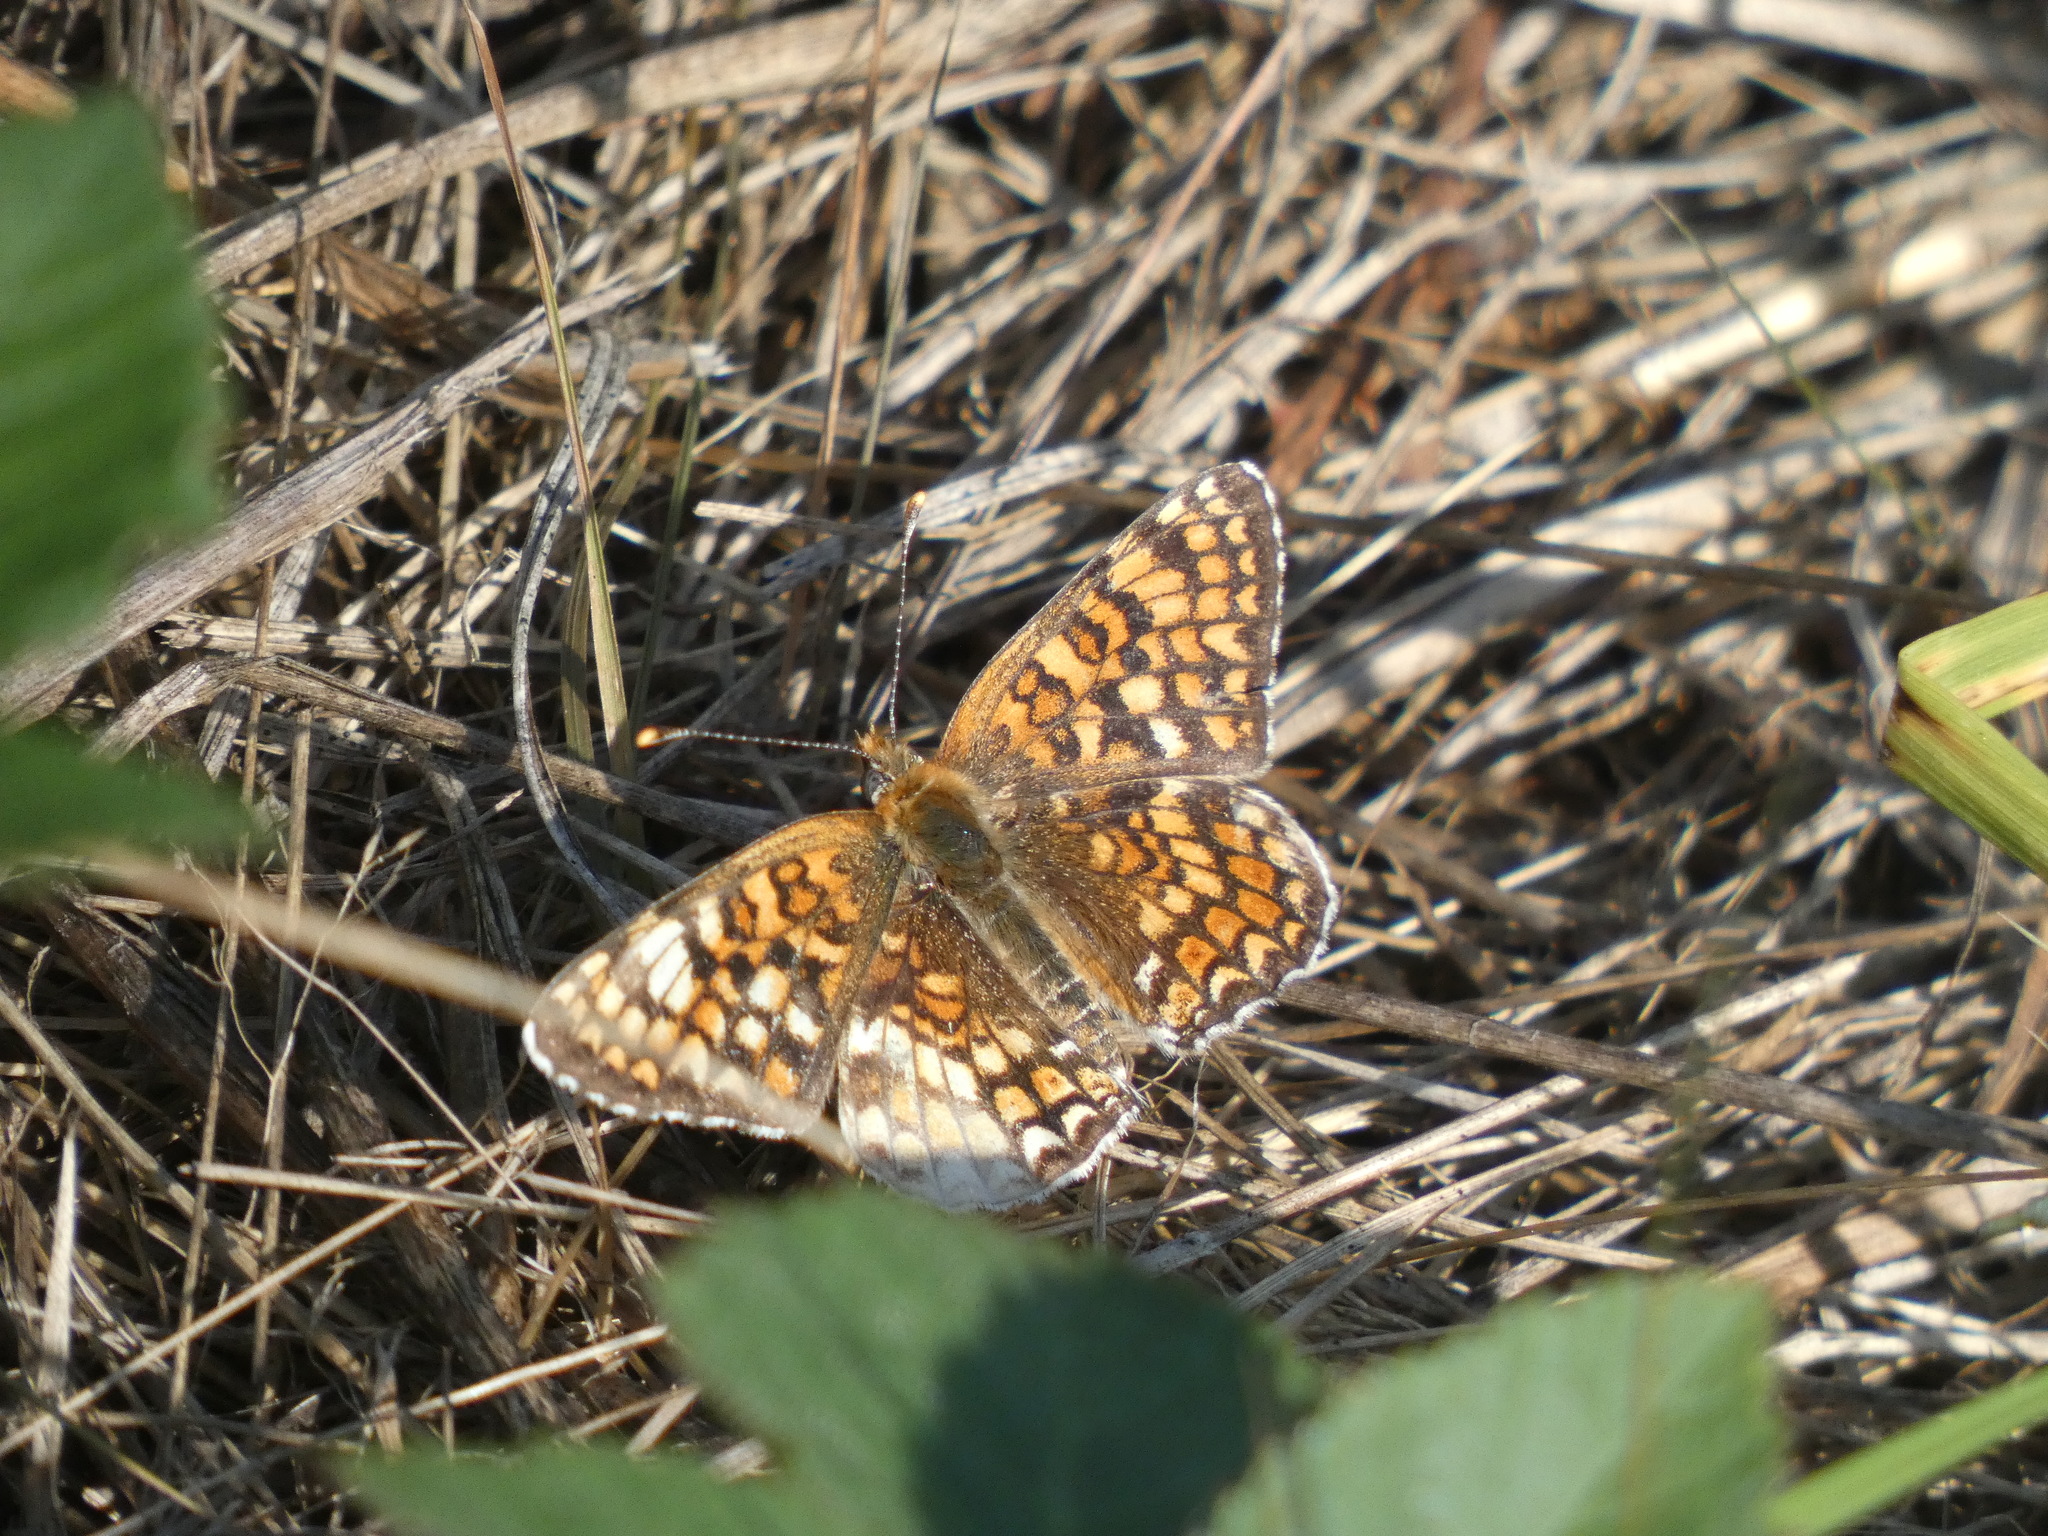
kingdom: Animalia
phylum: Arthropoda
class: Insecta
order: Lepidoptera
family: Nymphalidae
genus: Melitaea
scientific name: Melitaea phoebe
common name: Knapweed fritillary
